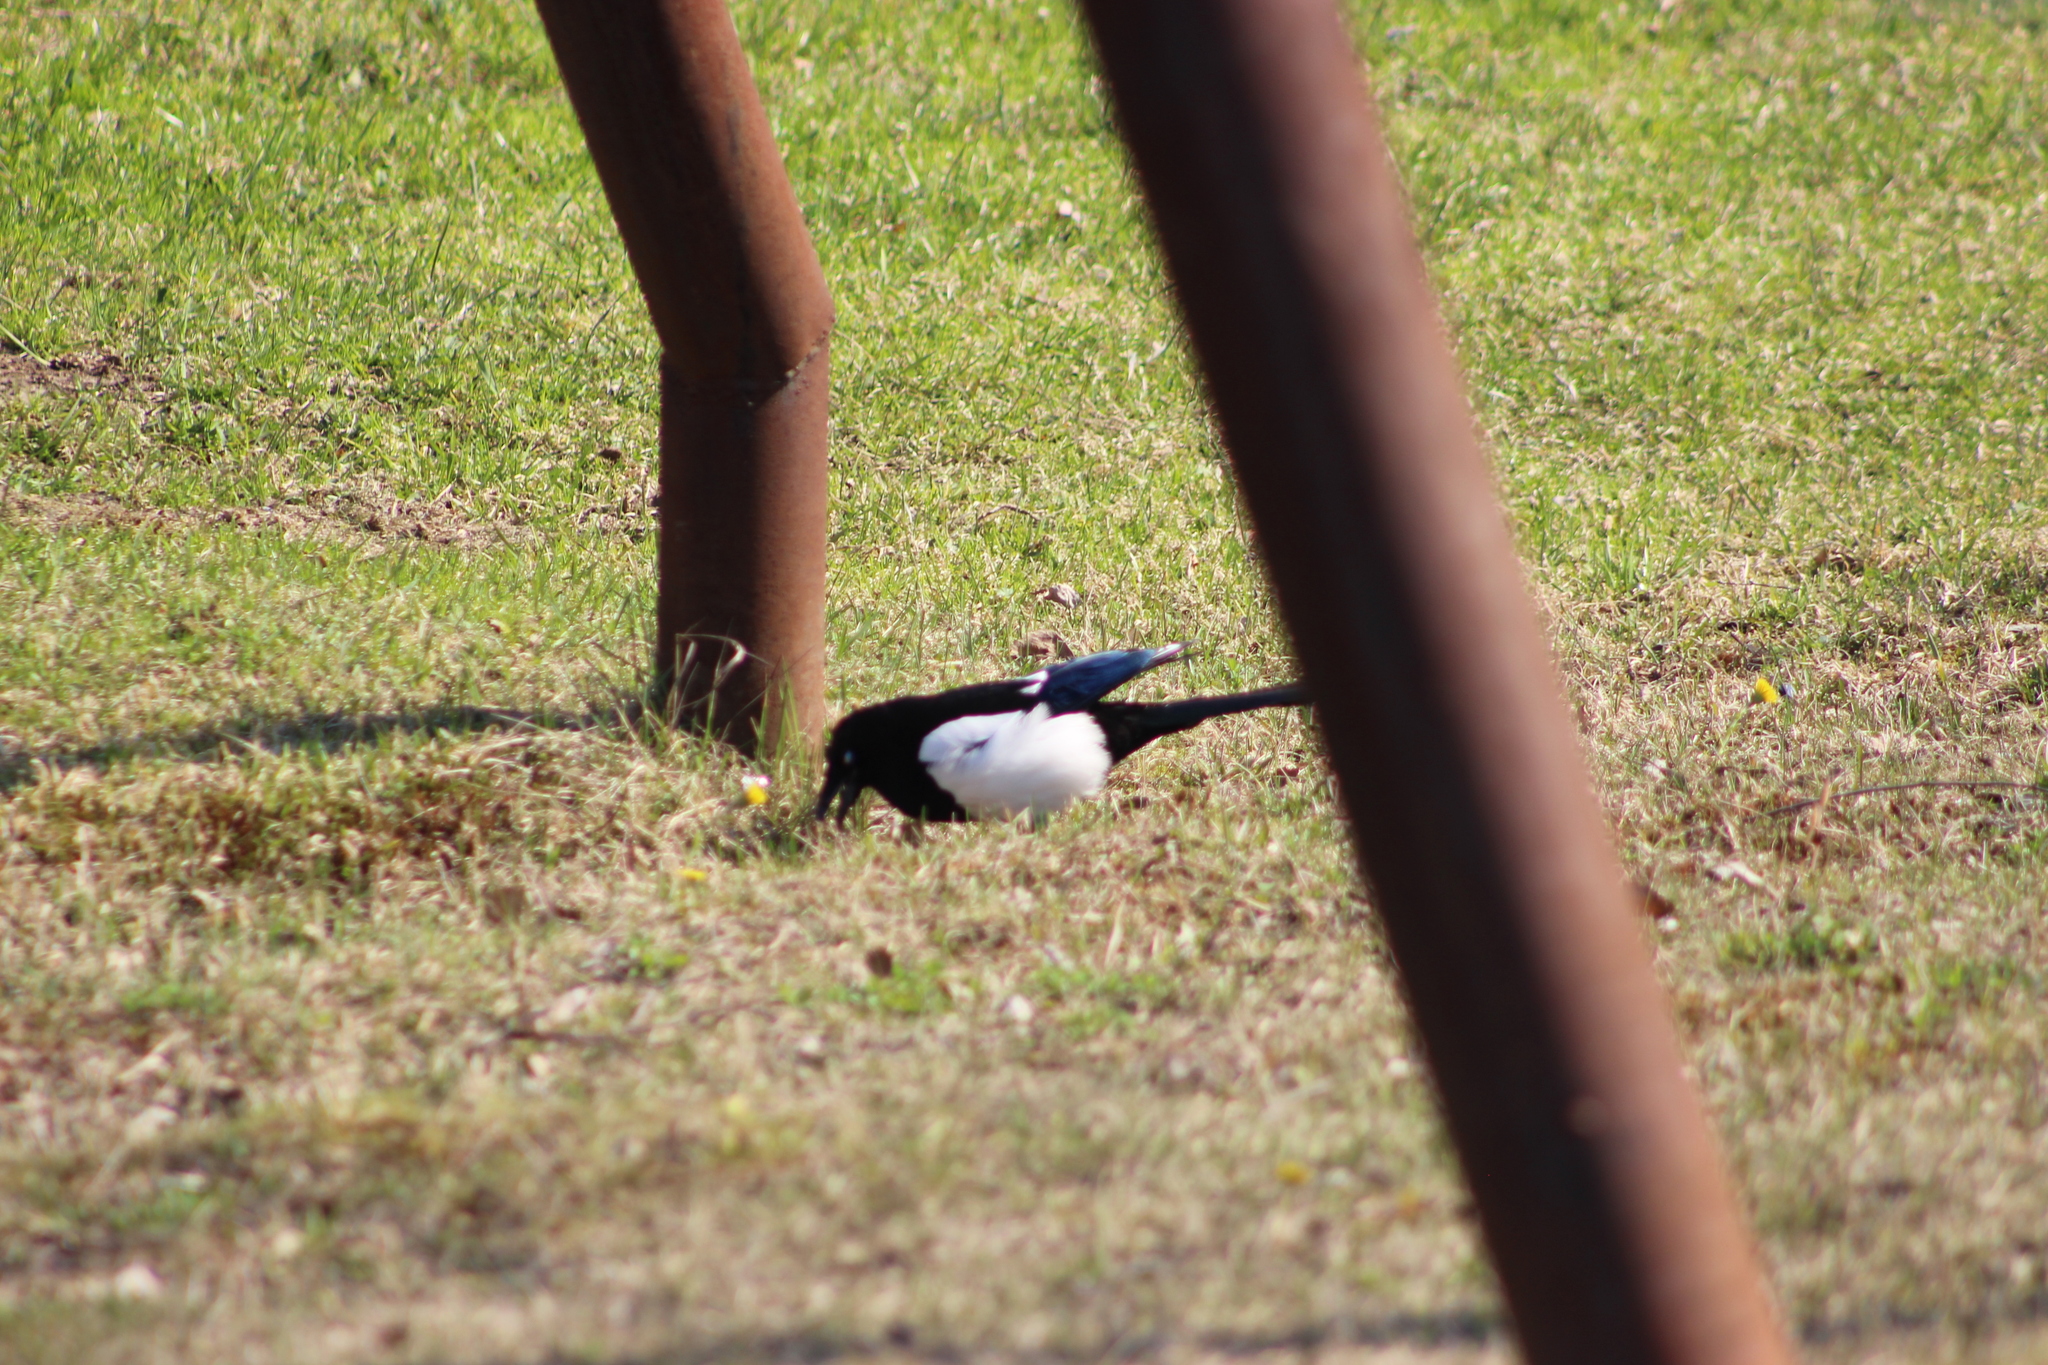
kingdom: Animalia
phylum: Chordata
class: Aves
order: Passeriformes
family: Corvidae
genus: Pica
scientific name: Pica pica
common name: Eurasian magpie
